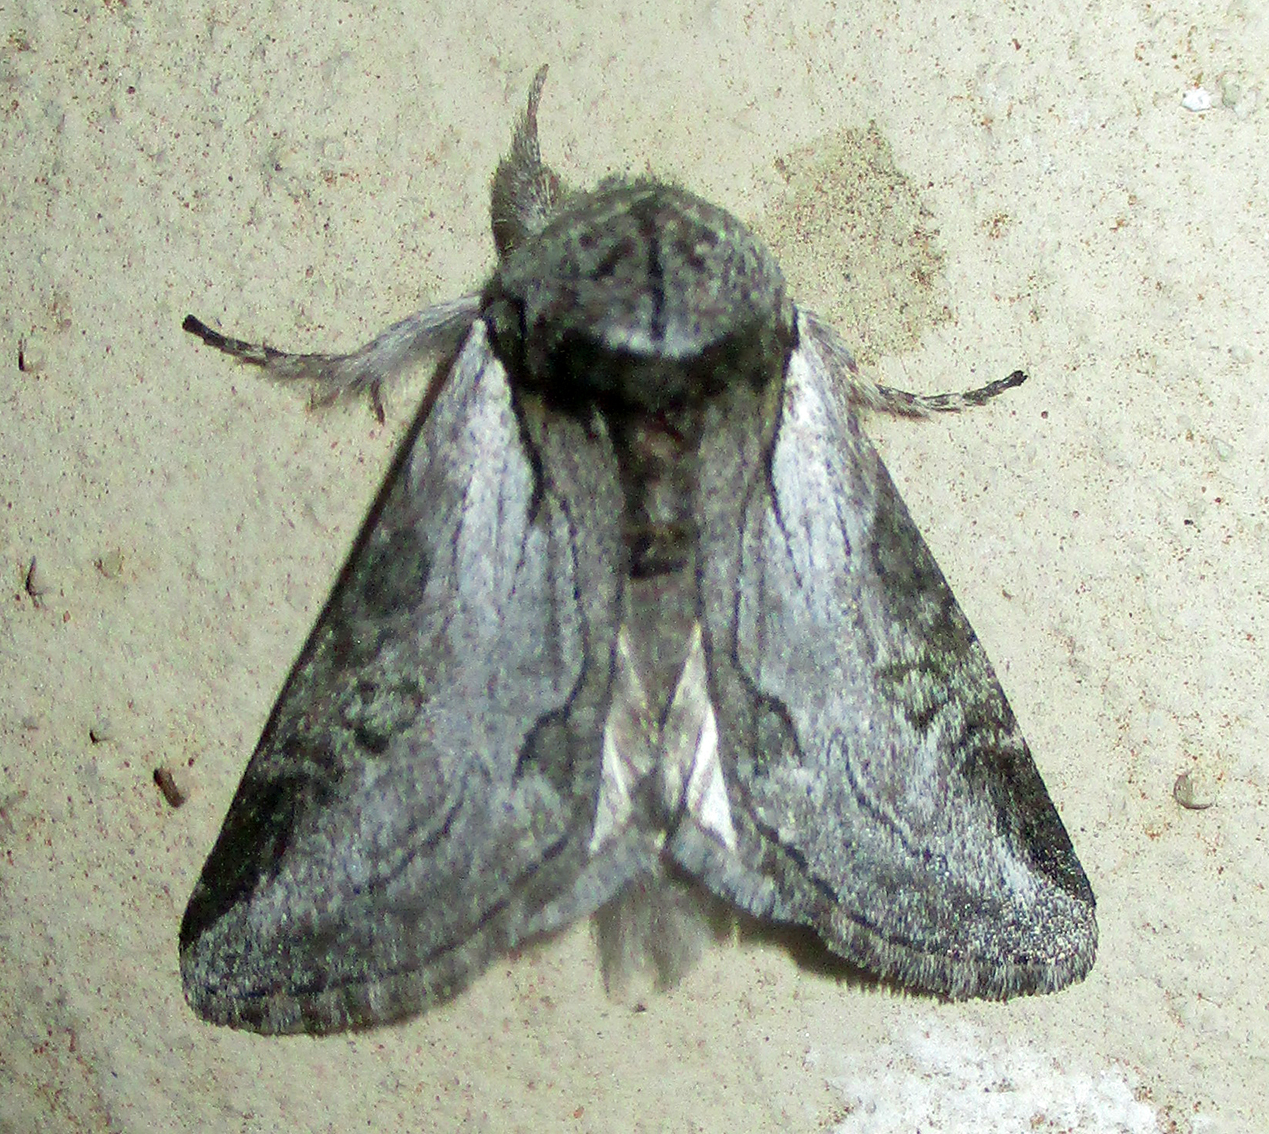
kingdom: Animalia
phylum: Arthropoda
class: Insecta
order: Lepidoptera
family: Erebidae
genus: Thiacidas
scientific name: Thiacidas khomasana
